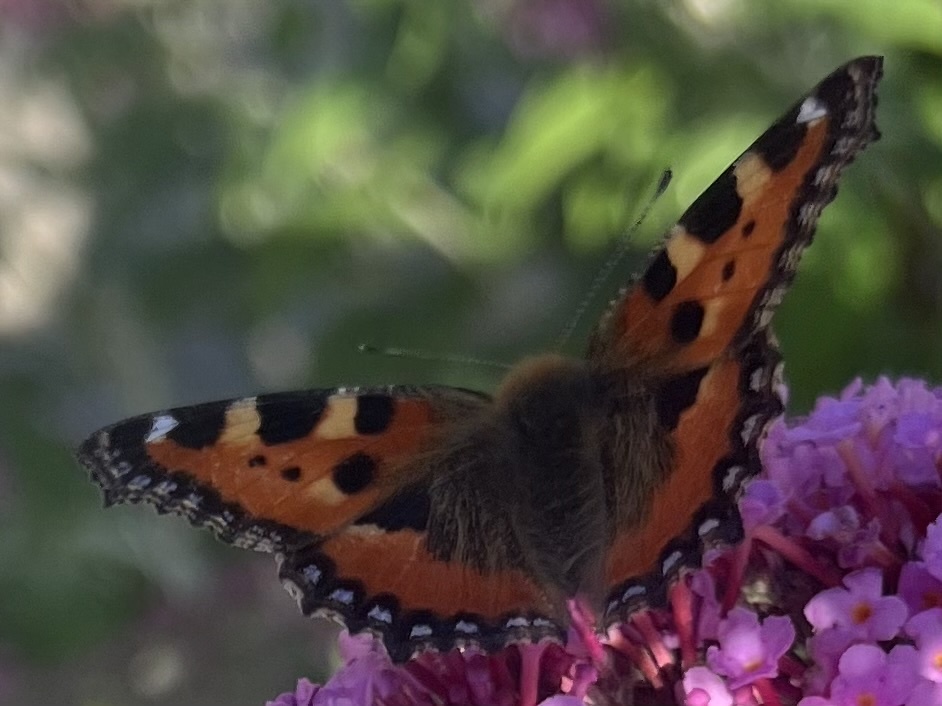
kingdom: Animalia
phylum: Arthropoda
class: Insecta
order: Lepidoptera
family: Nymphalidae
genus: Aglais
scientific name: Aglais urticae
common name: Small tortoiseshell
